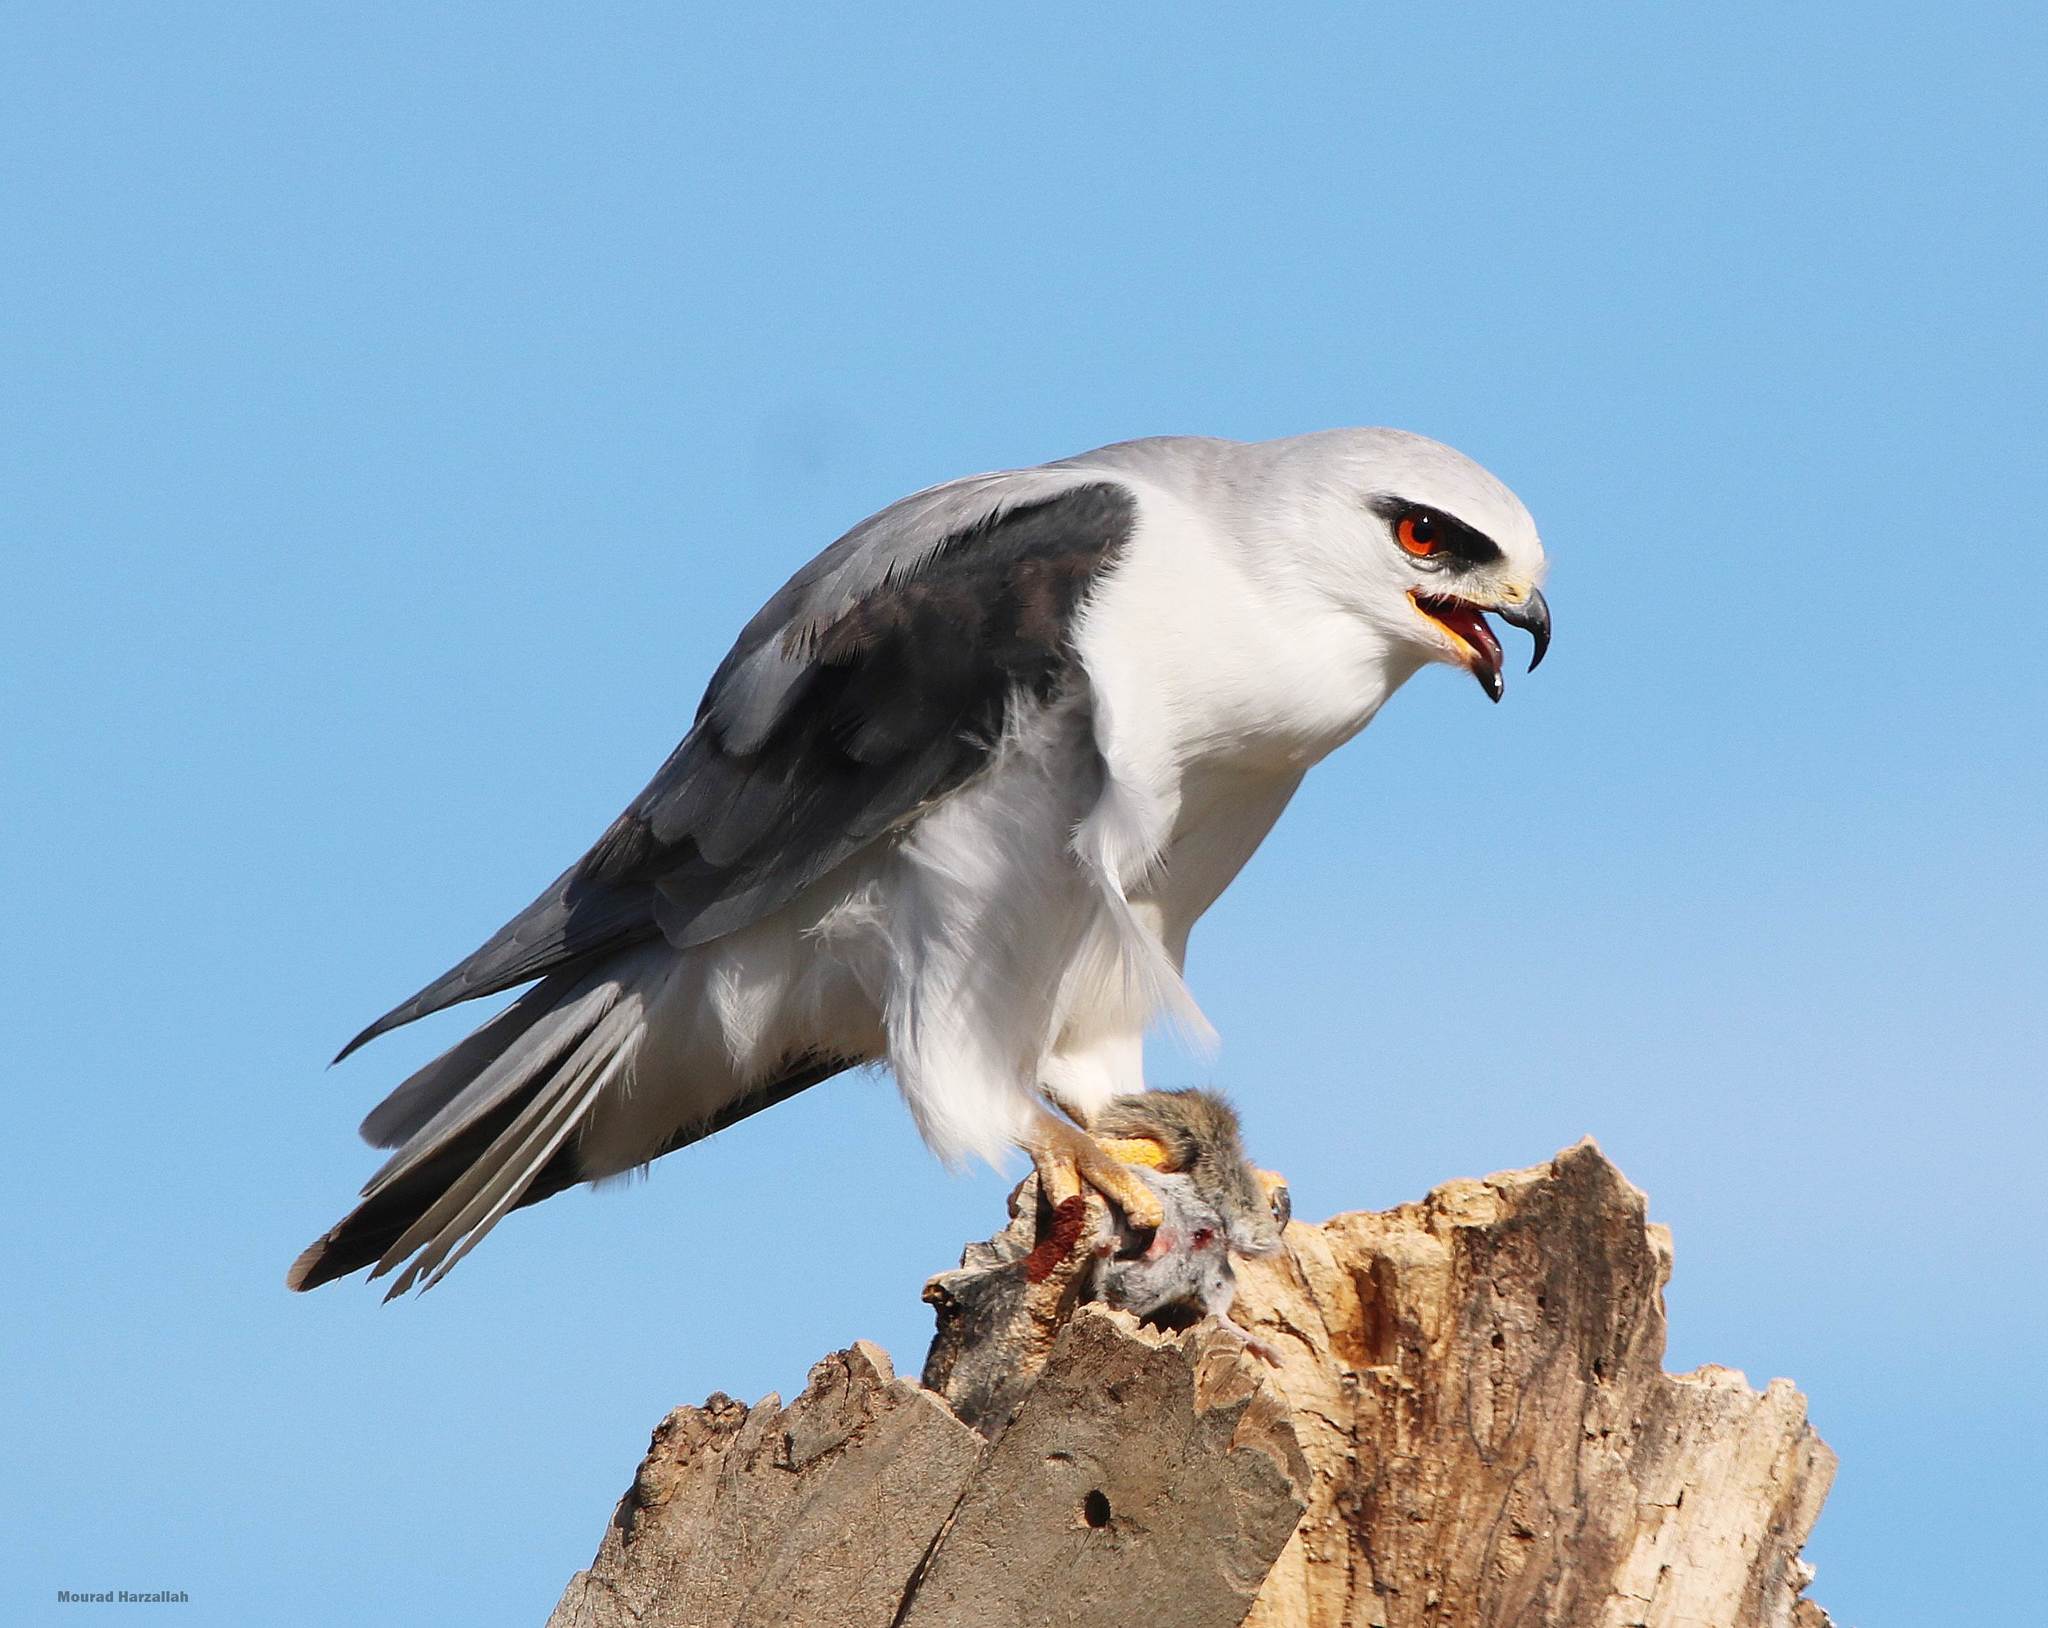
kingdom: Animalia
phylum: Chordata
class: Aves
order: Accipitriformes
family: Accipitridae
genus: Elanus
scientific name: Elanus caeruleus
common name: Black-winged kite
